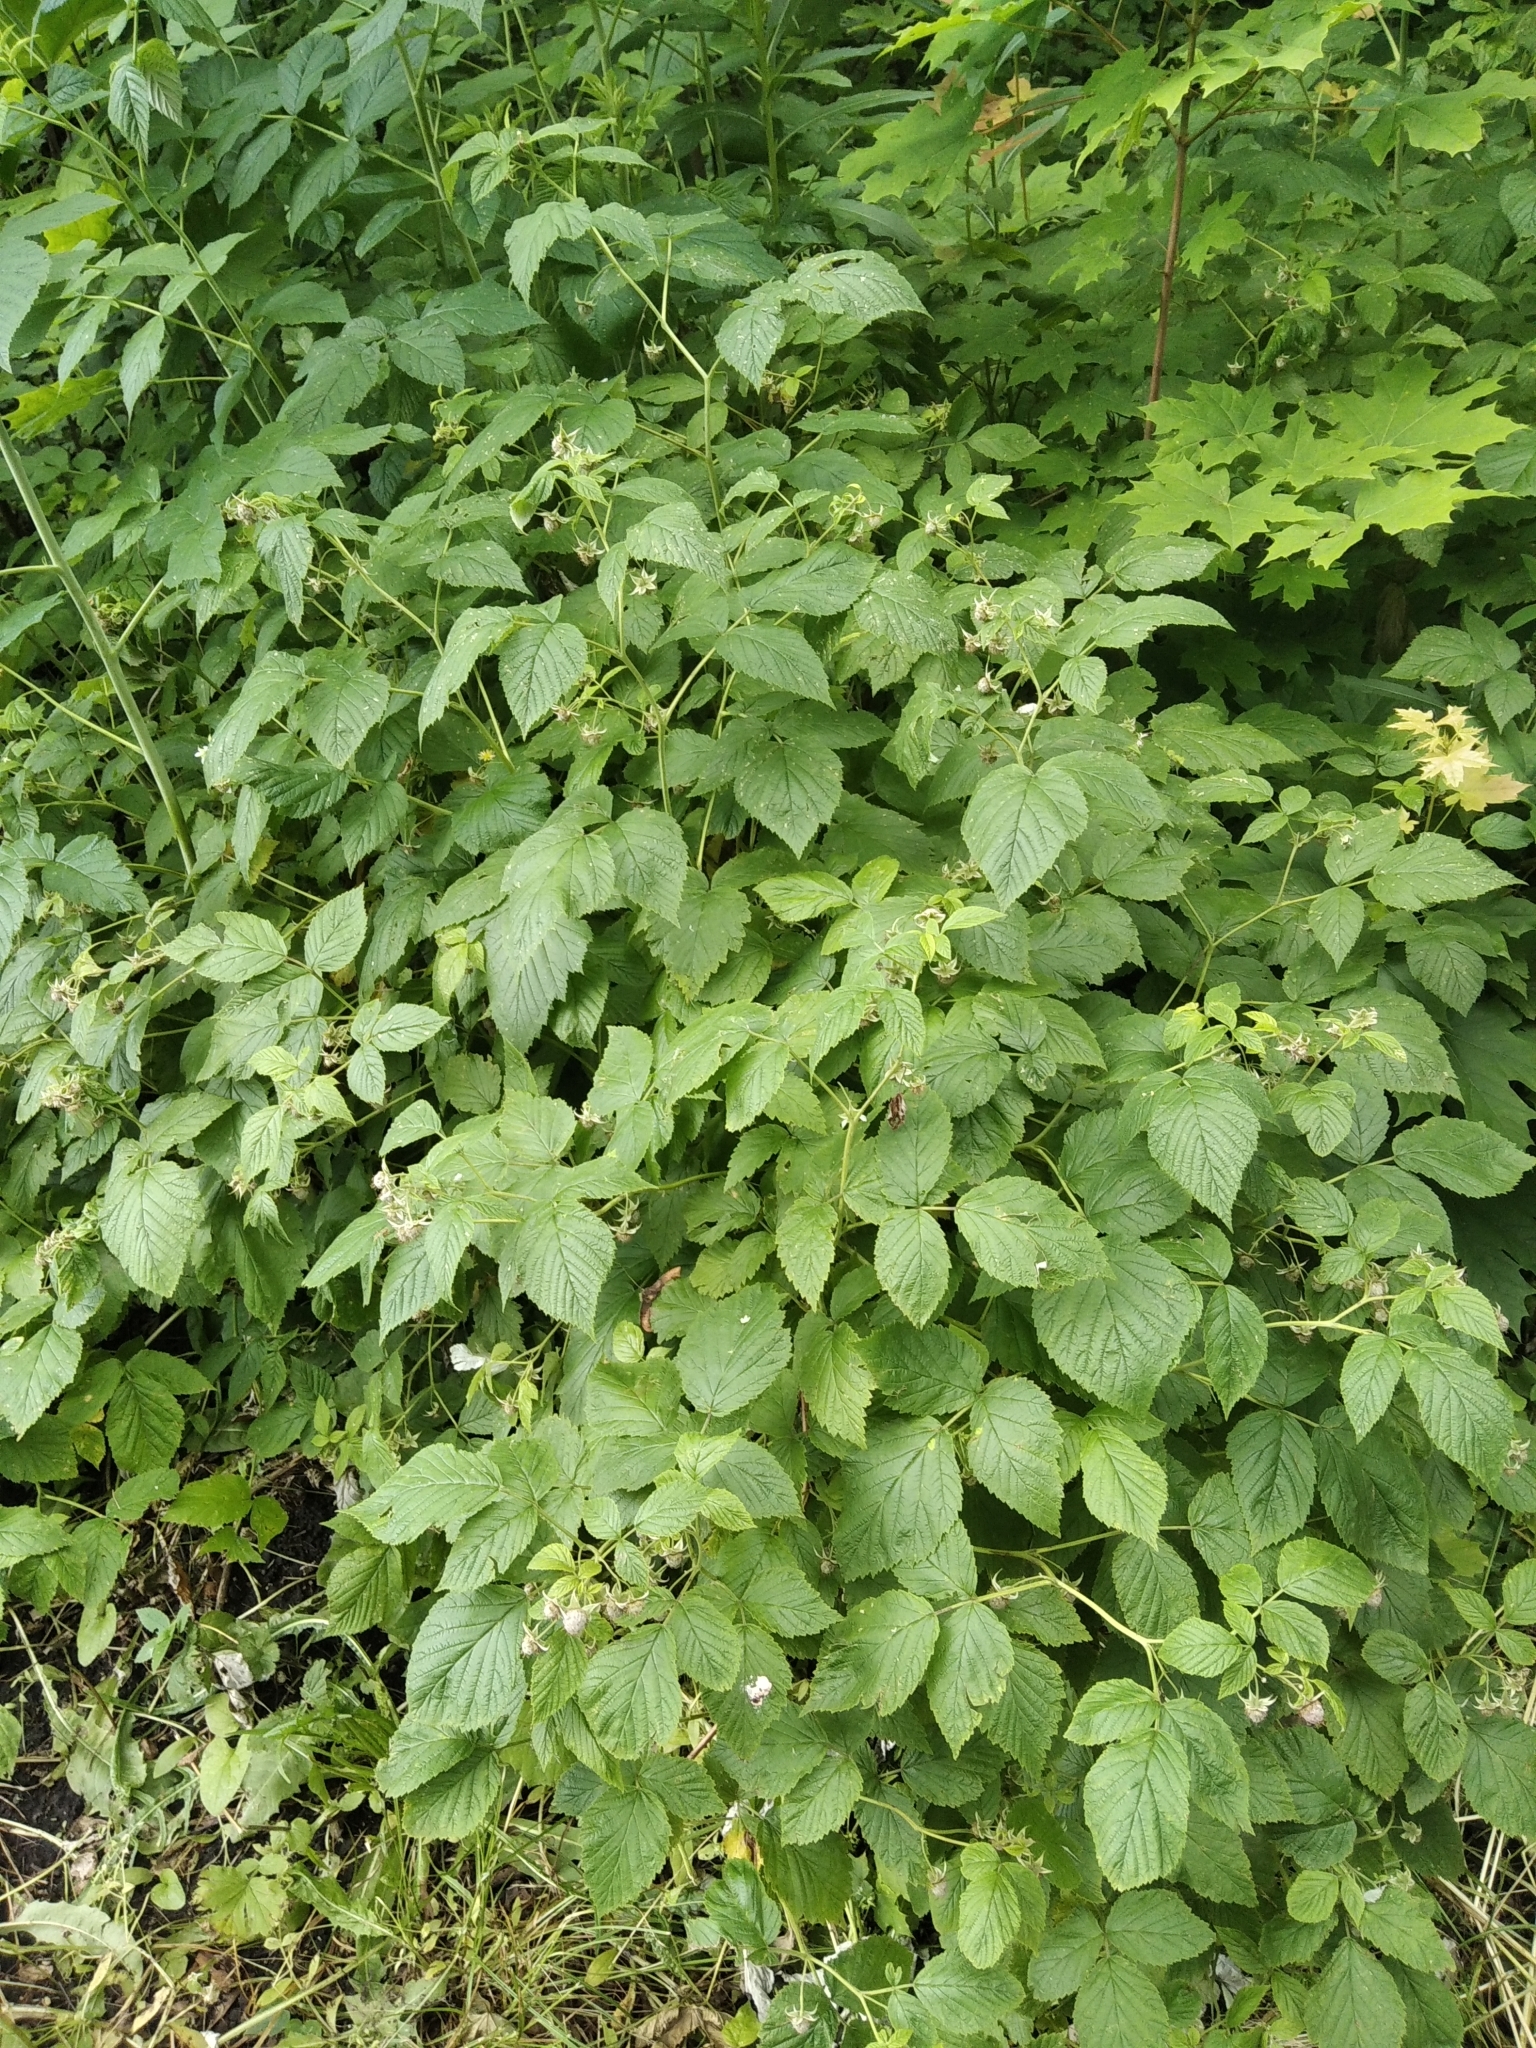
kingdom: Plantae
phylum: Tracheophyta
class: Magnoliopsida
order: Rosales
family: Rosaceae
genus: Rubus
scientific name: Rubus idaeus
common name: Raspberry
